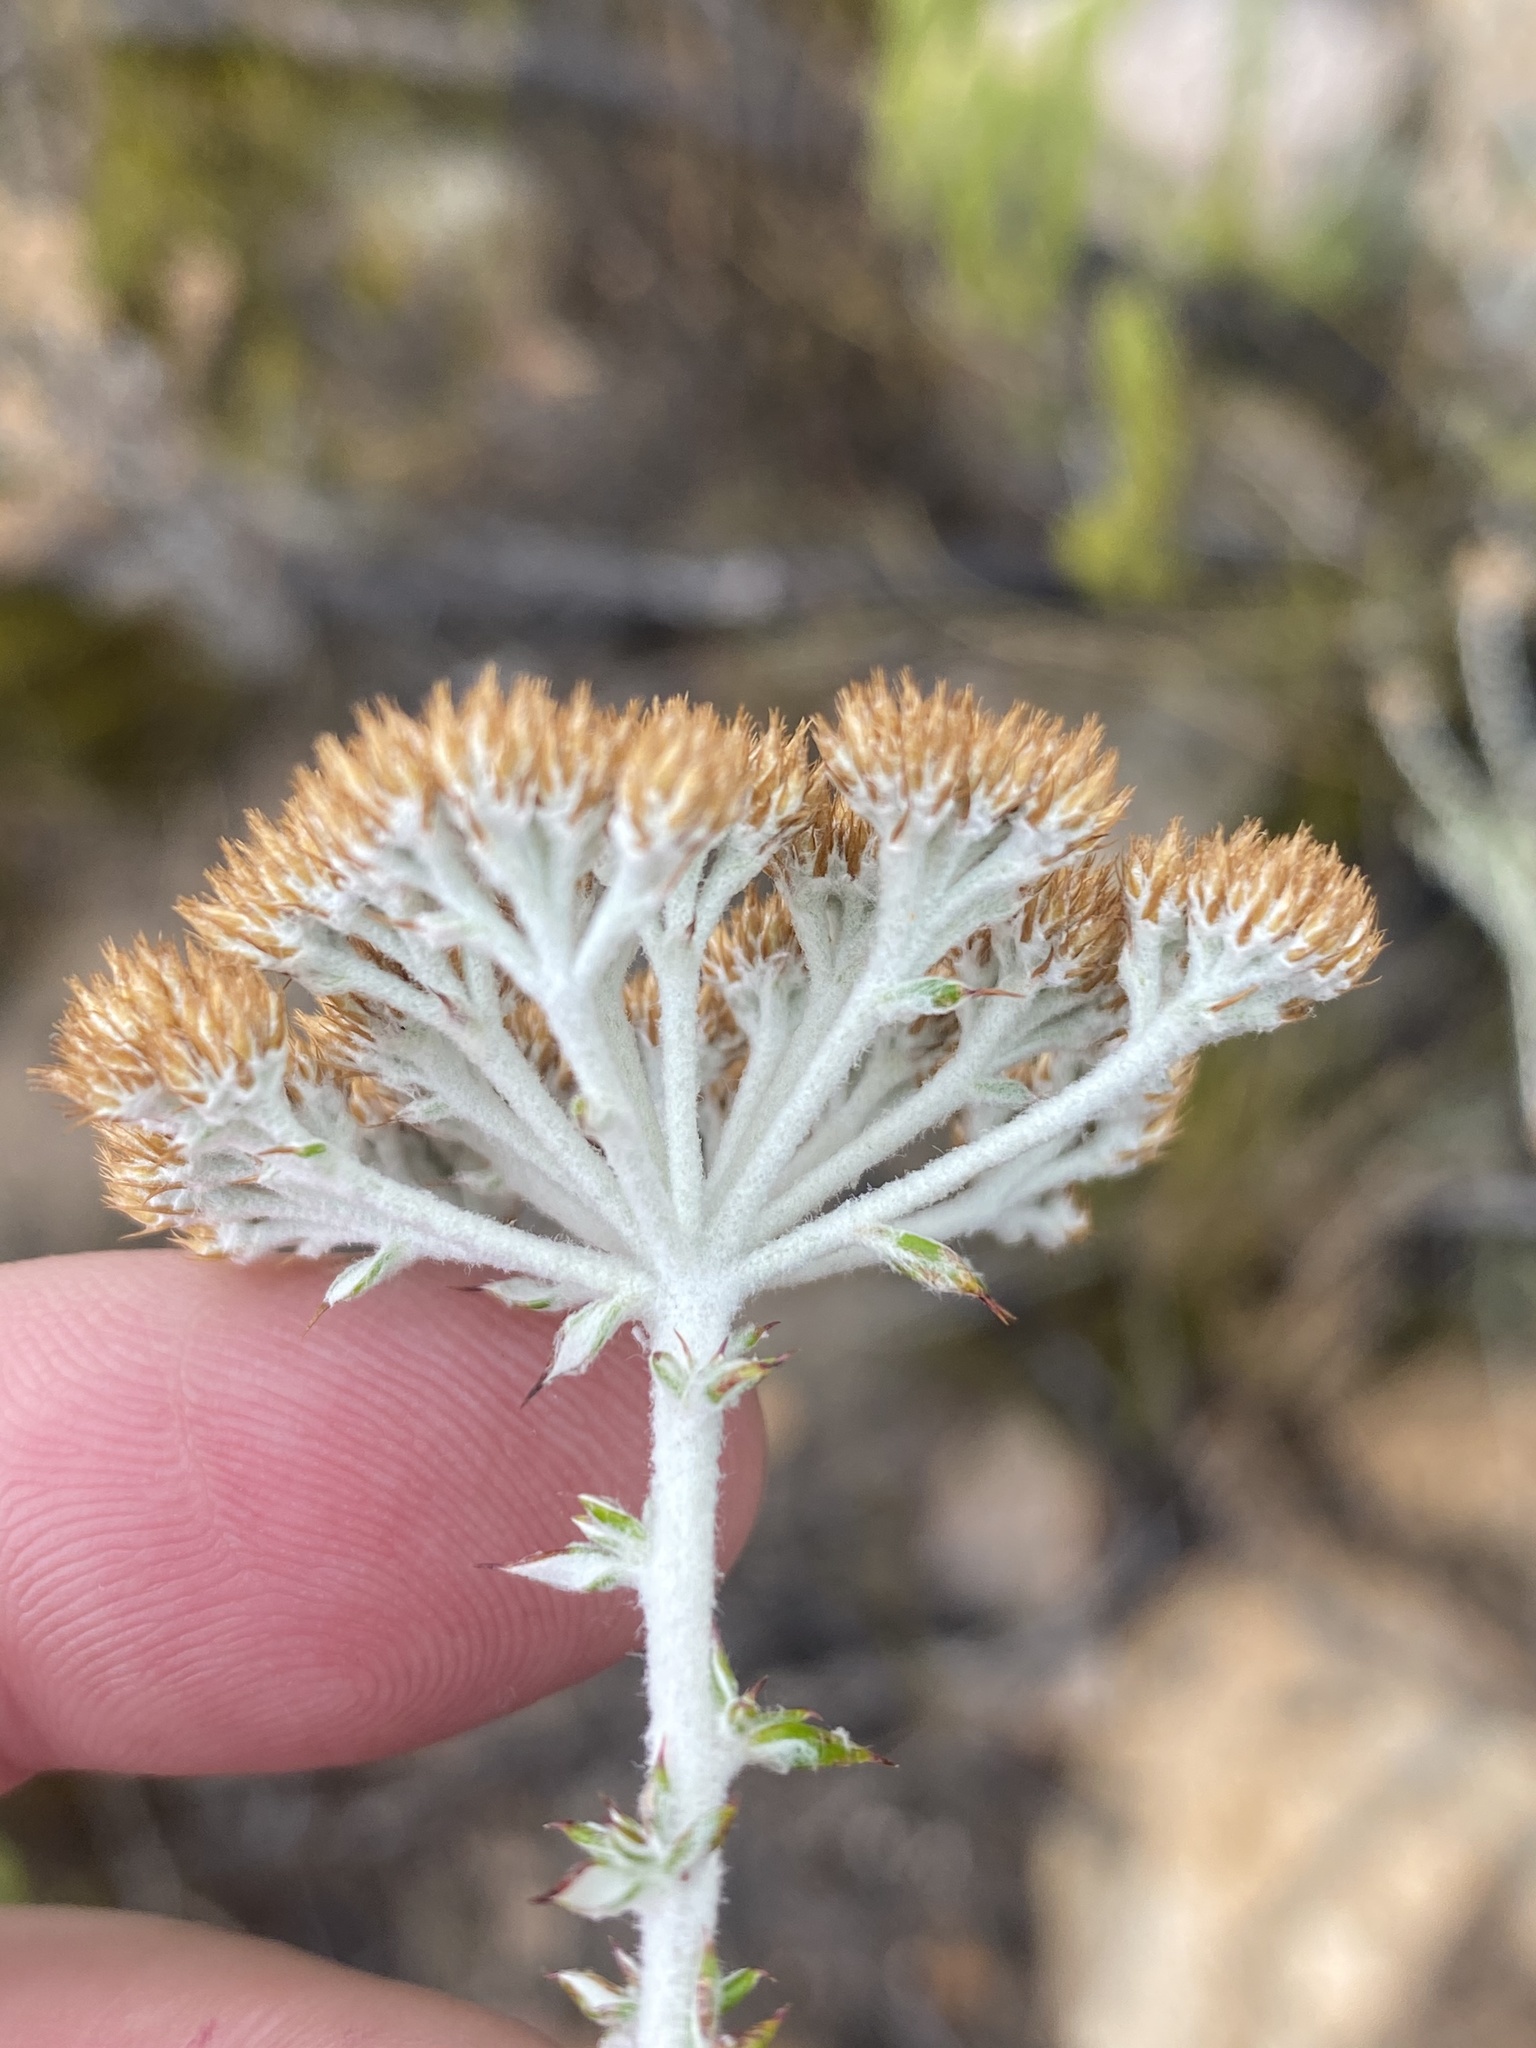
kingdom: Plantae
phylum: Tracheophyta
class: Magnoliopsida
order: Asterales
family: Asteraceae
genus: Metalasia
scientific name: Metalasia dregeana
